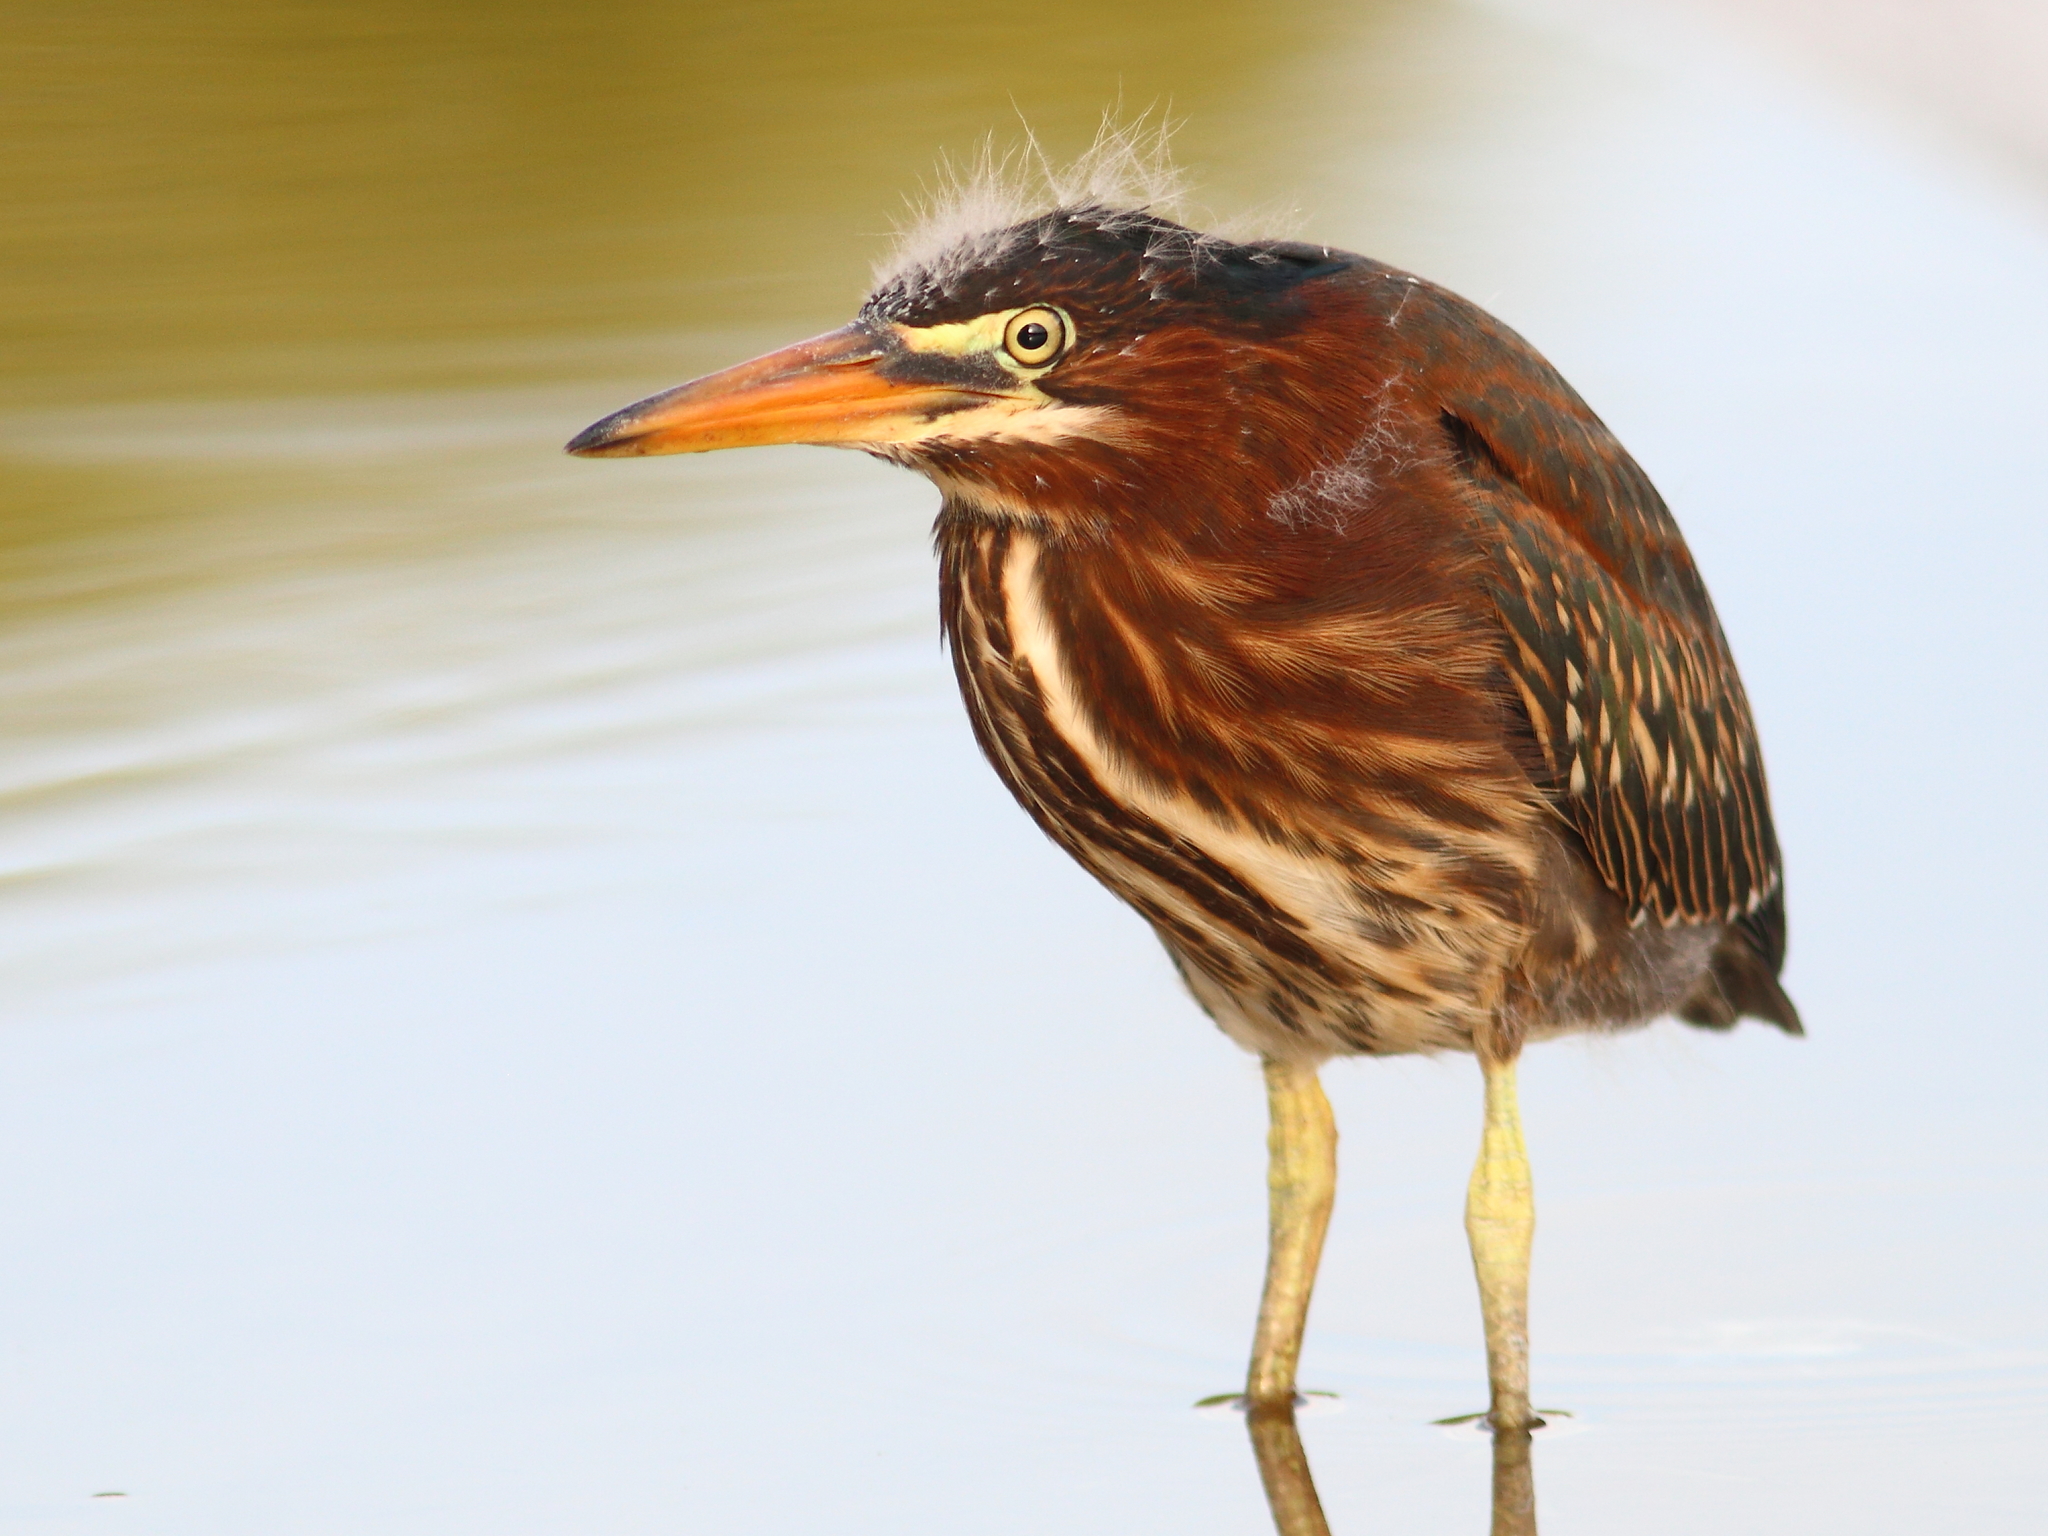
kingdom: Animalia
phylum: Chordata
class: Aves
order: Pelecaniformes
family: Ardeidae
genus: Butorides
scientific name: Butorides virescens
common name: Green heron
